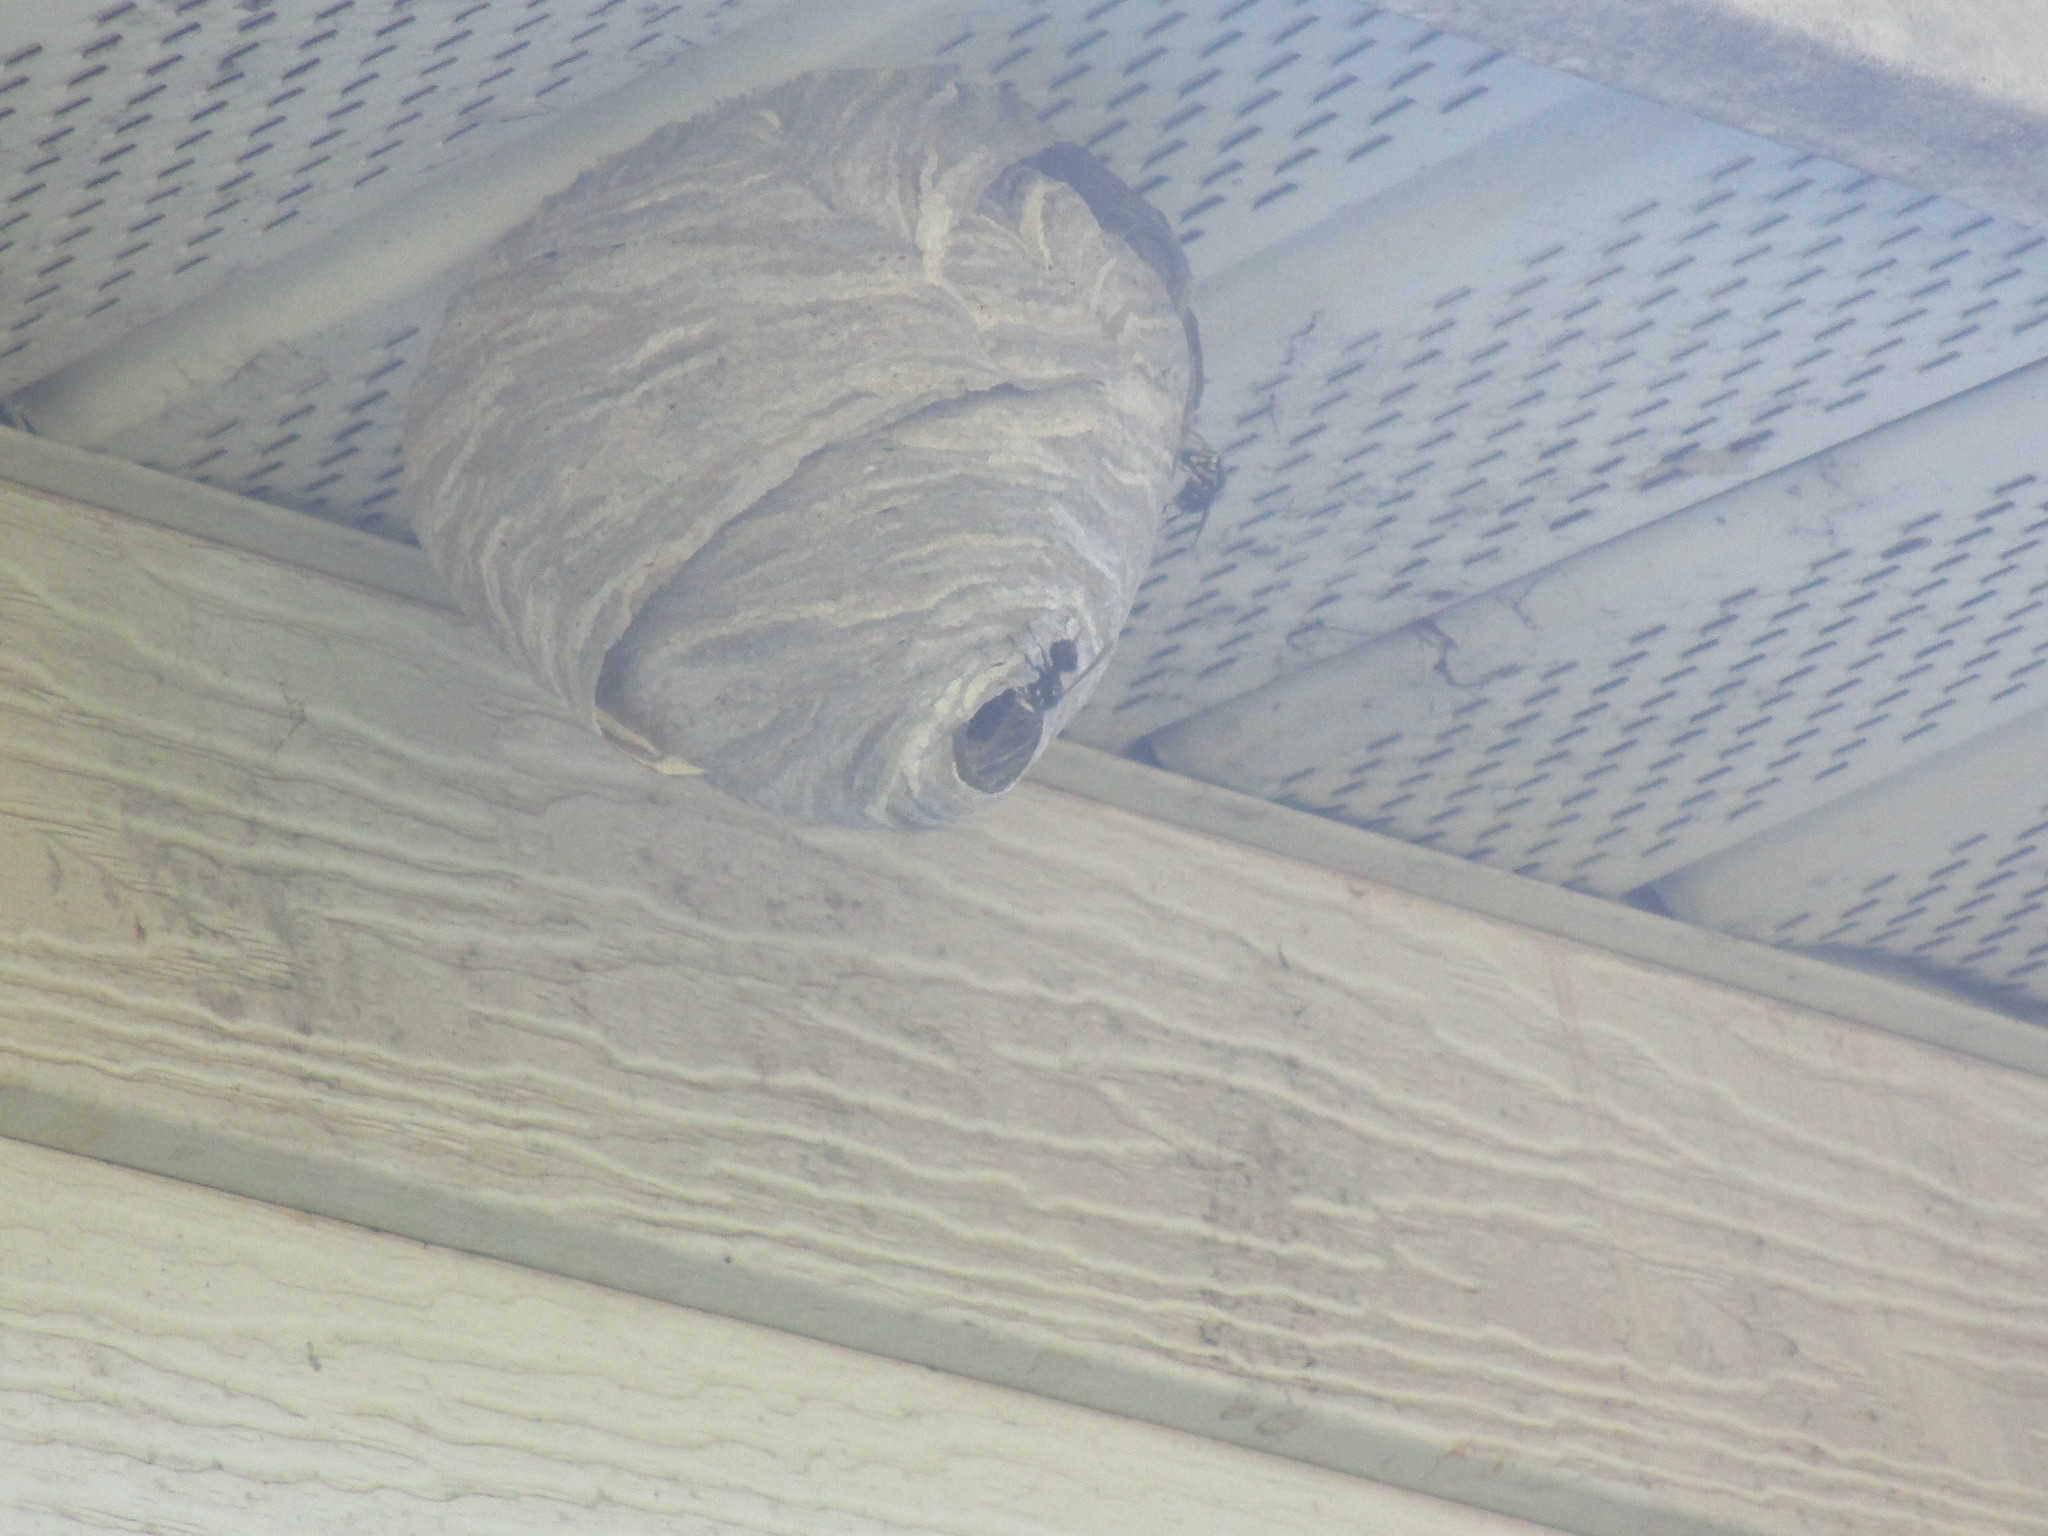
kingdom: Animalia
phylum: Arthropoda
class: Insecta
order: Hymenoptera
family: Vespidae
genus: Dolichovespula
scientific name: Dolichovespula maculata
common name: Bald-faced hornet
